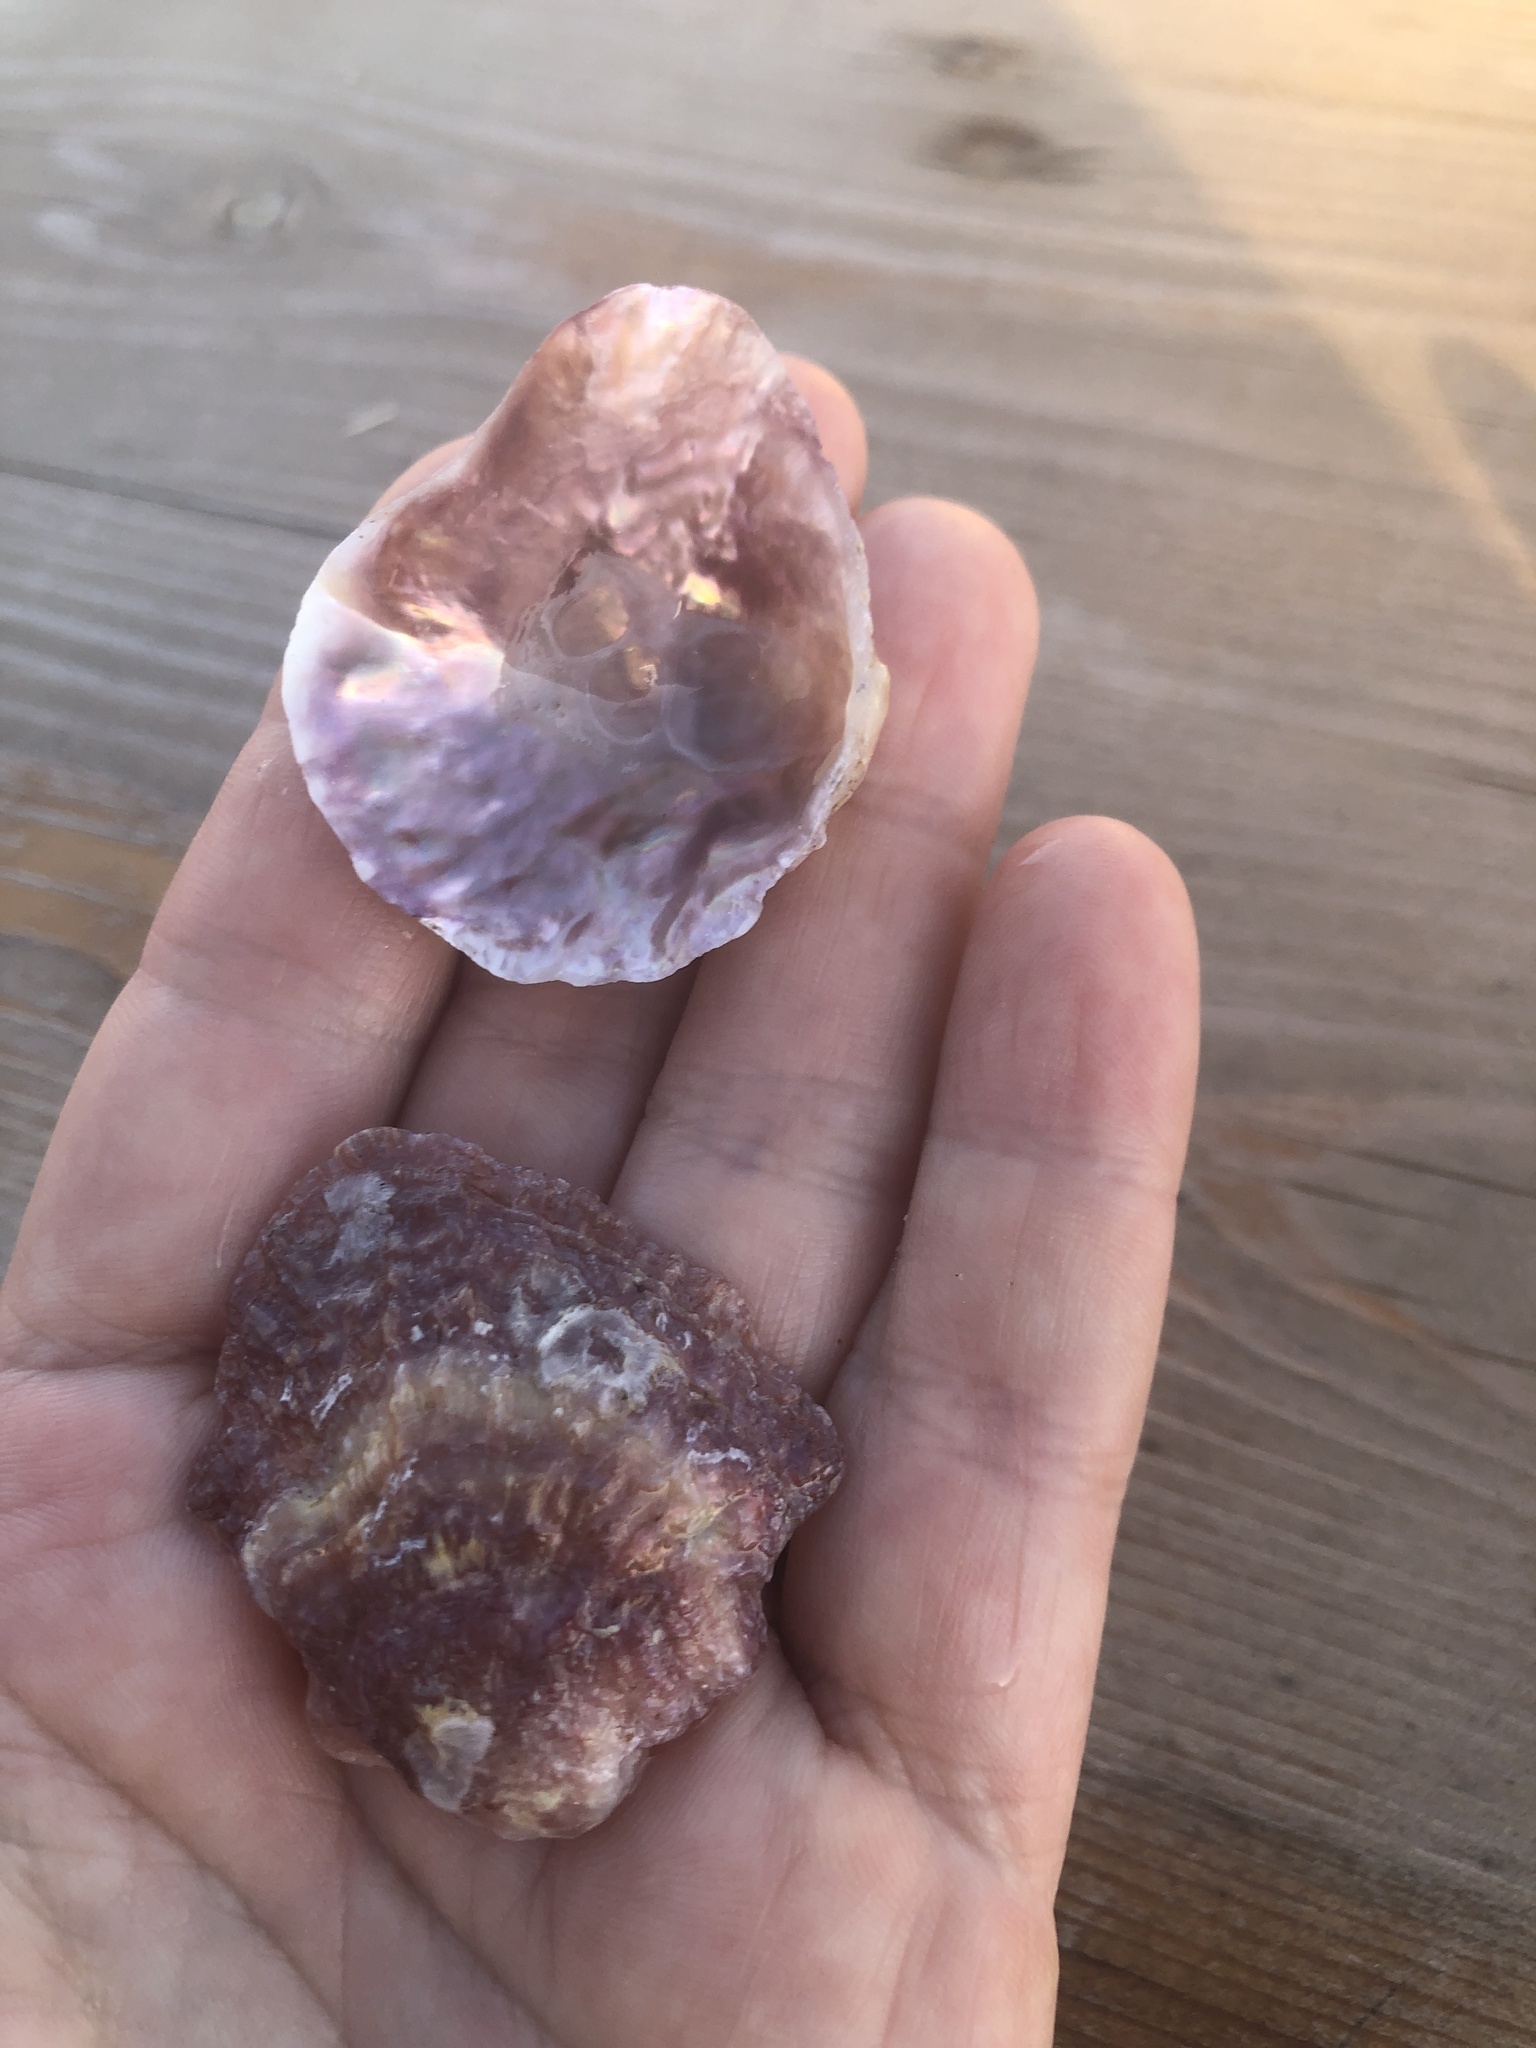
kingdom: Animalia
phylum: Mollusca
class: Bivalvia
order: Pectinida
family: Anomiidae
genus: Anomia
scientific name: Anomia ephippium
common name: Saddle oyster
